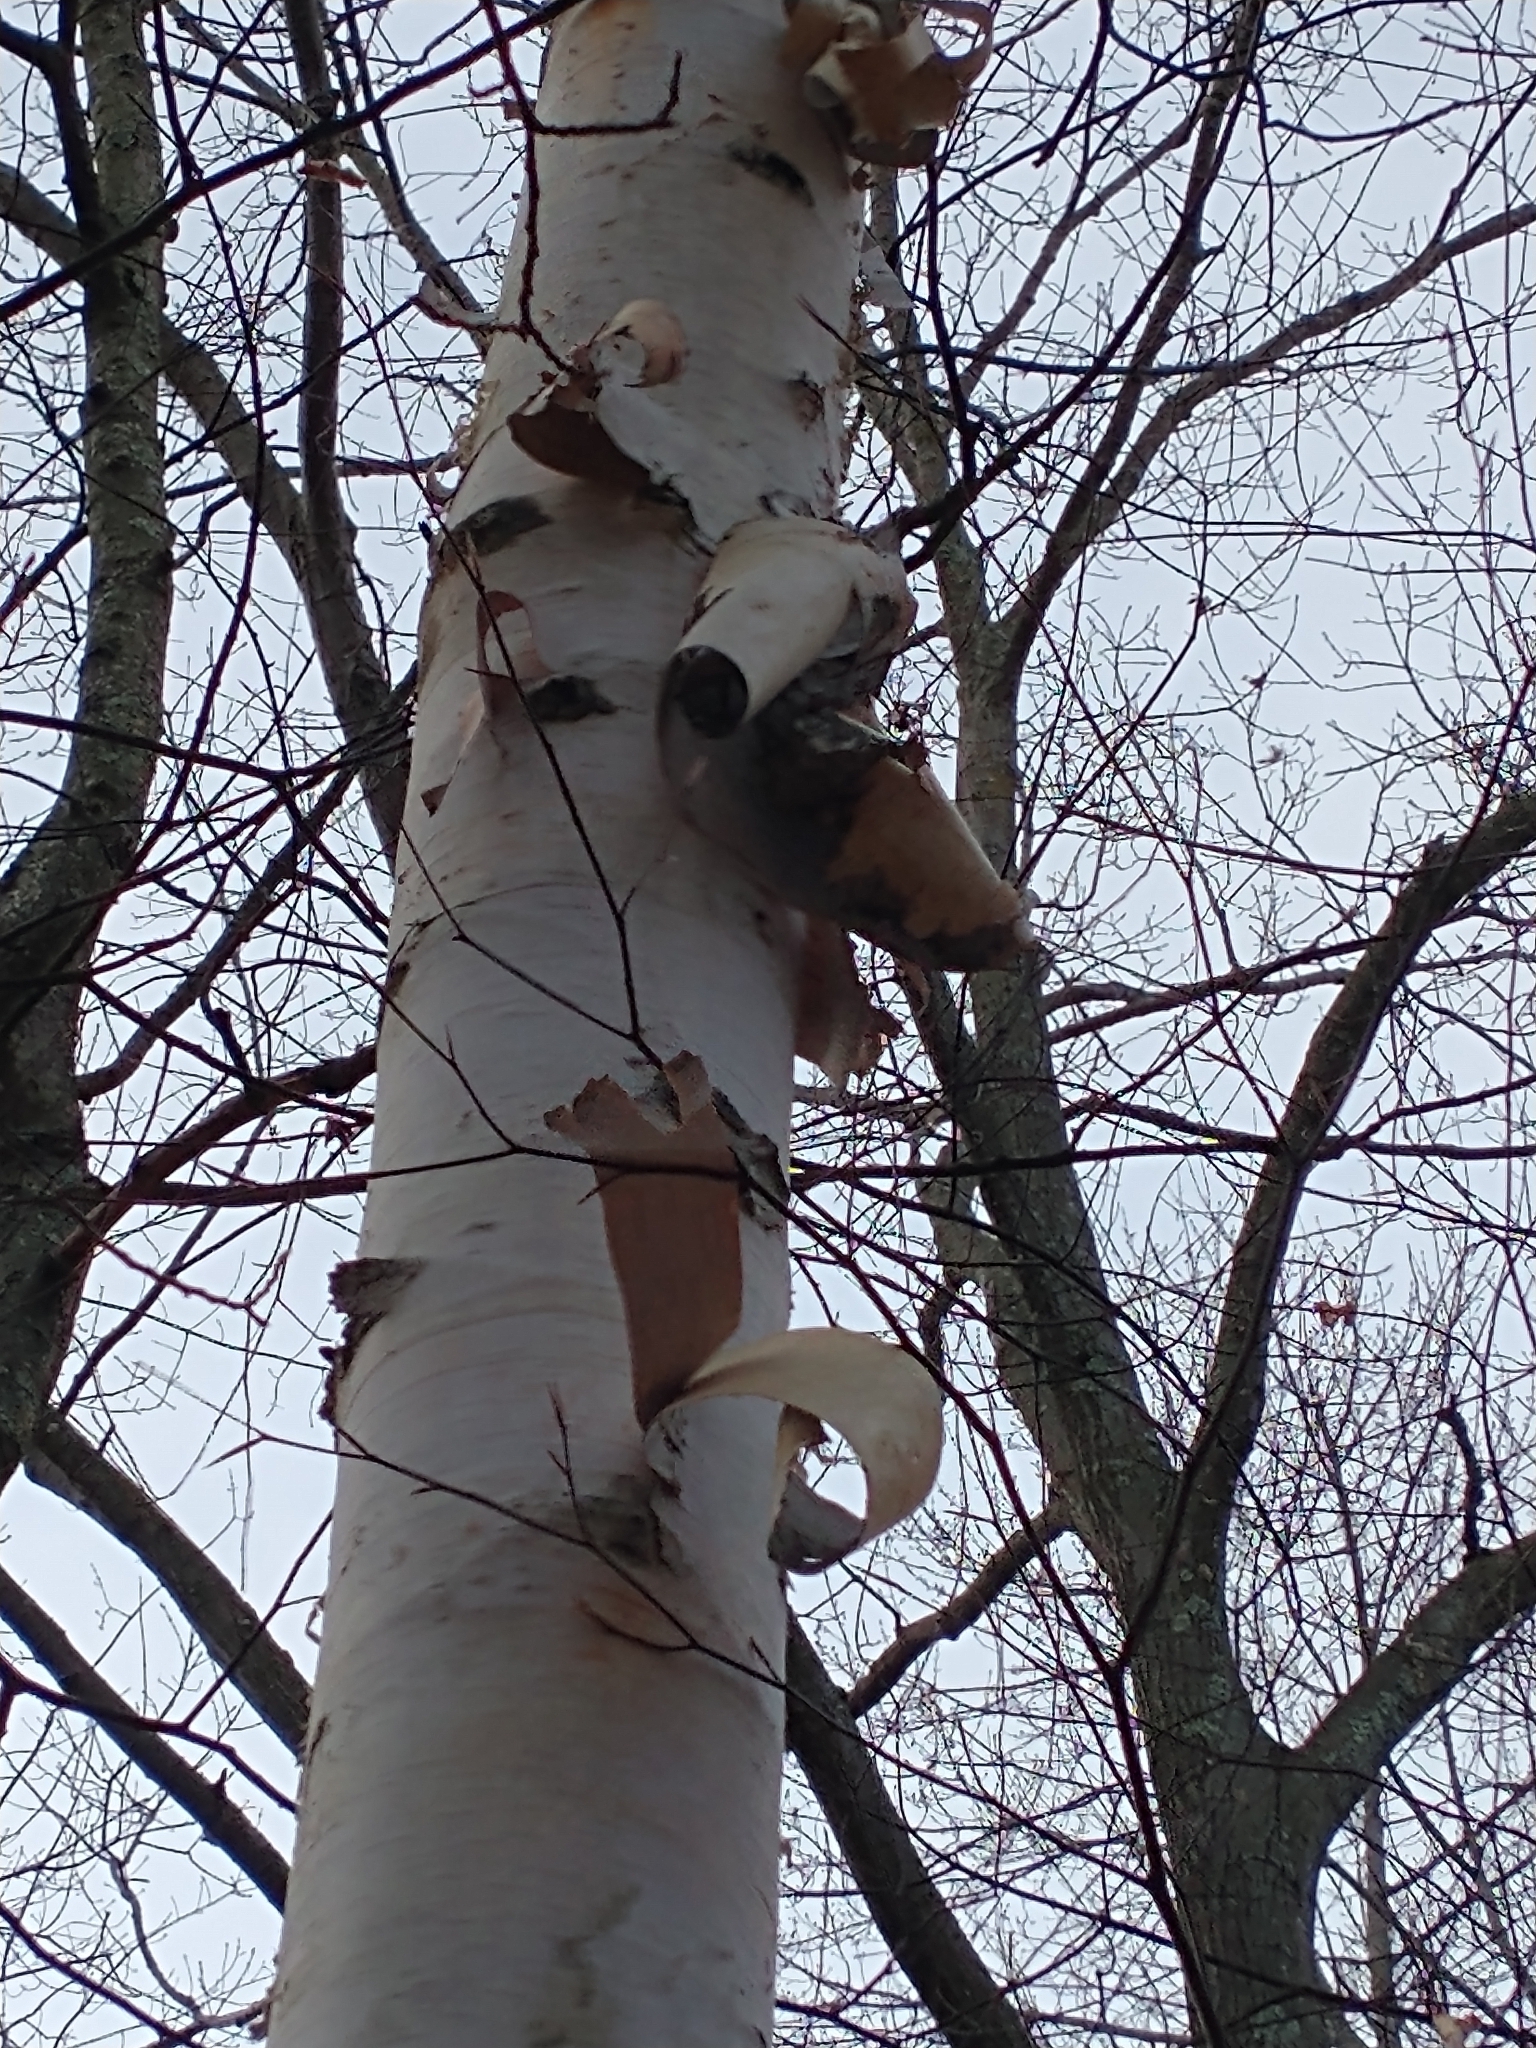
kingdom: Plantae
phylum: Tracheophyta
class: Magnoliopsida
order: Fagales
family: Betulaceae
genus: Betula
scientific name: Betula papyrifera
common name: Paper birch
